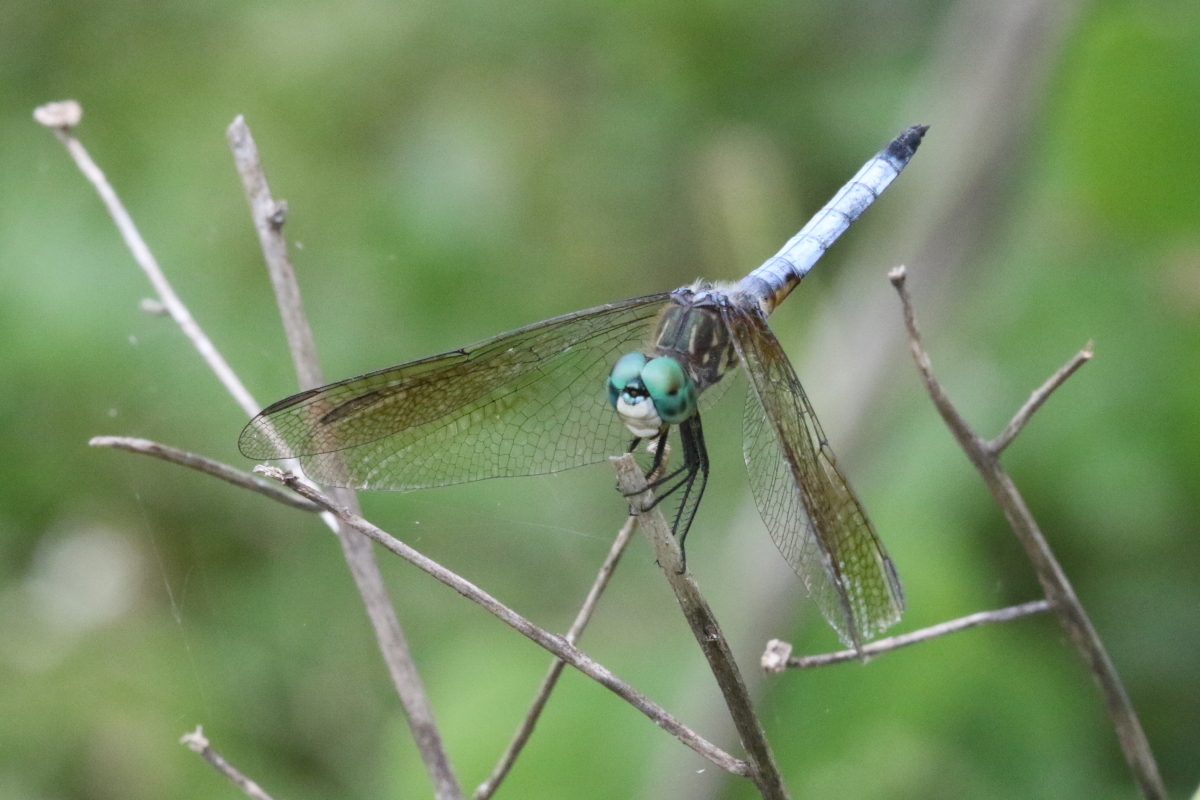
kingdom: Animalia
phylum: Arthropoda
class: Insecta
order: Odonata
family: Libellulidae
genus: Pachydiplax
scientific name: Pachydiplax longipennis
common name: Blue dasher
